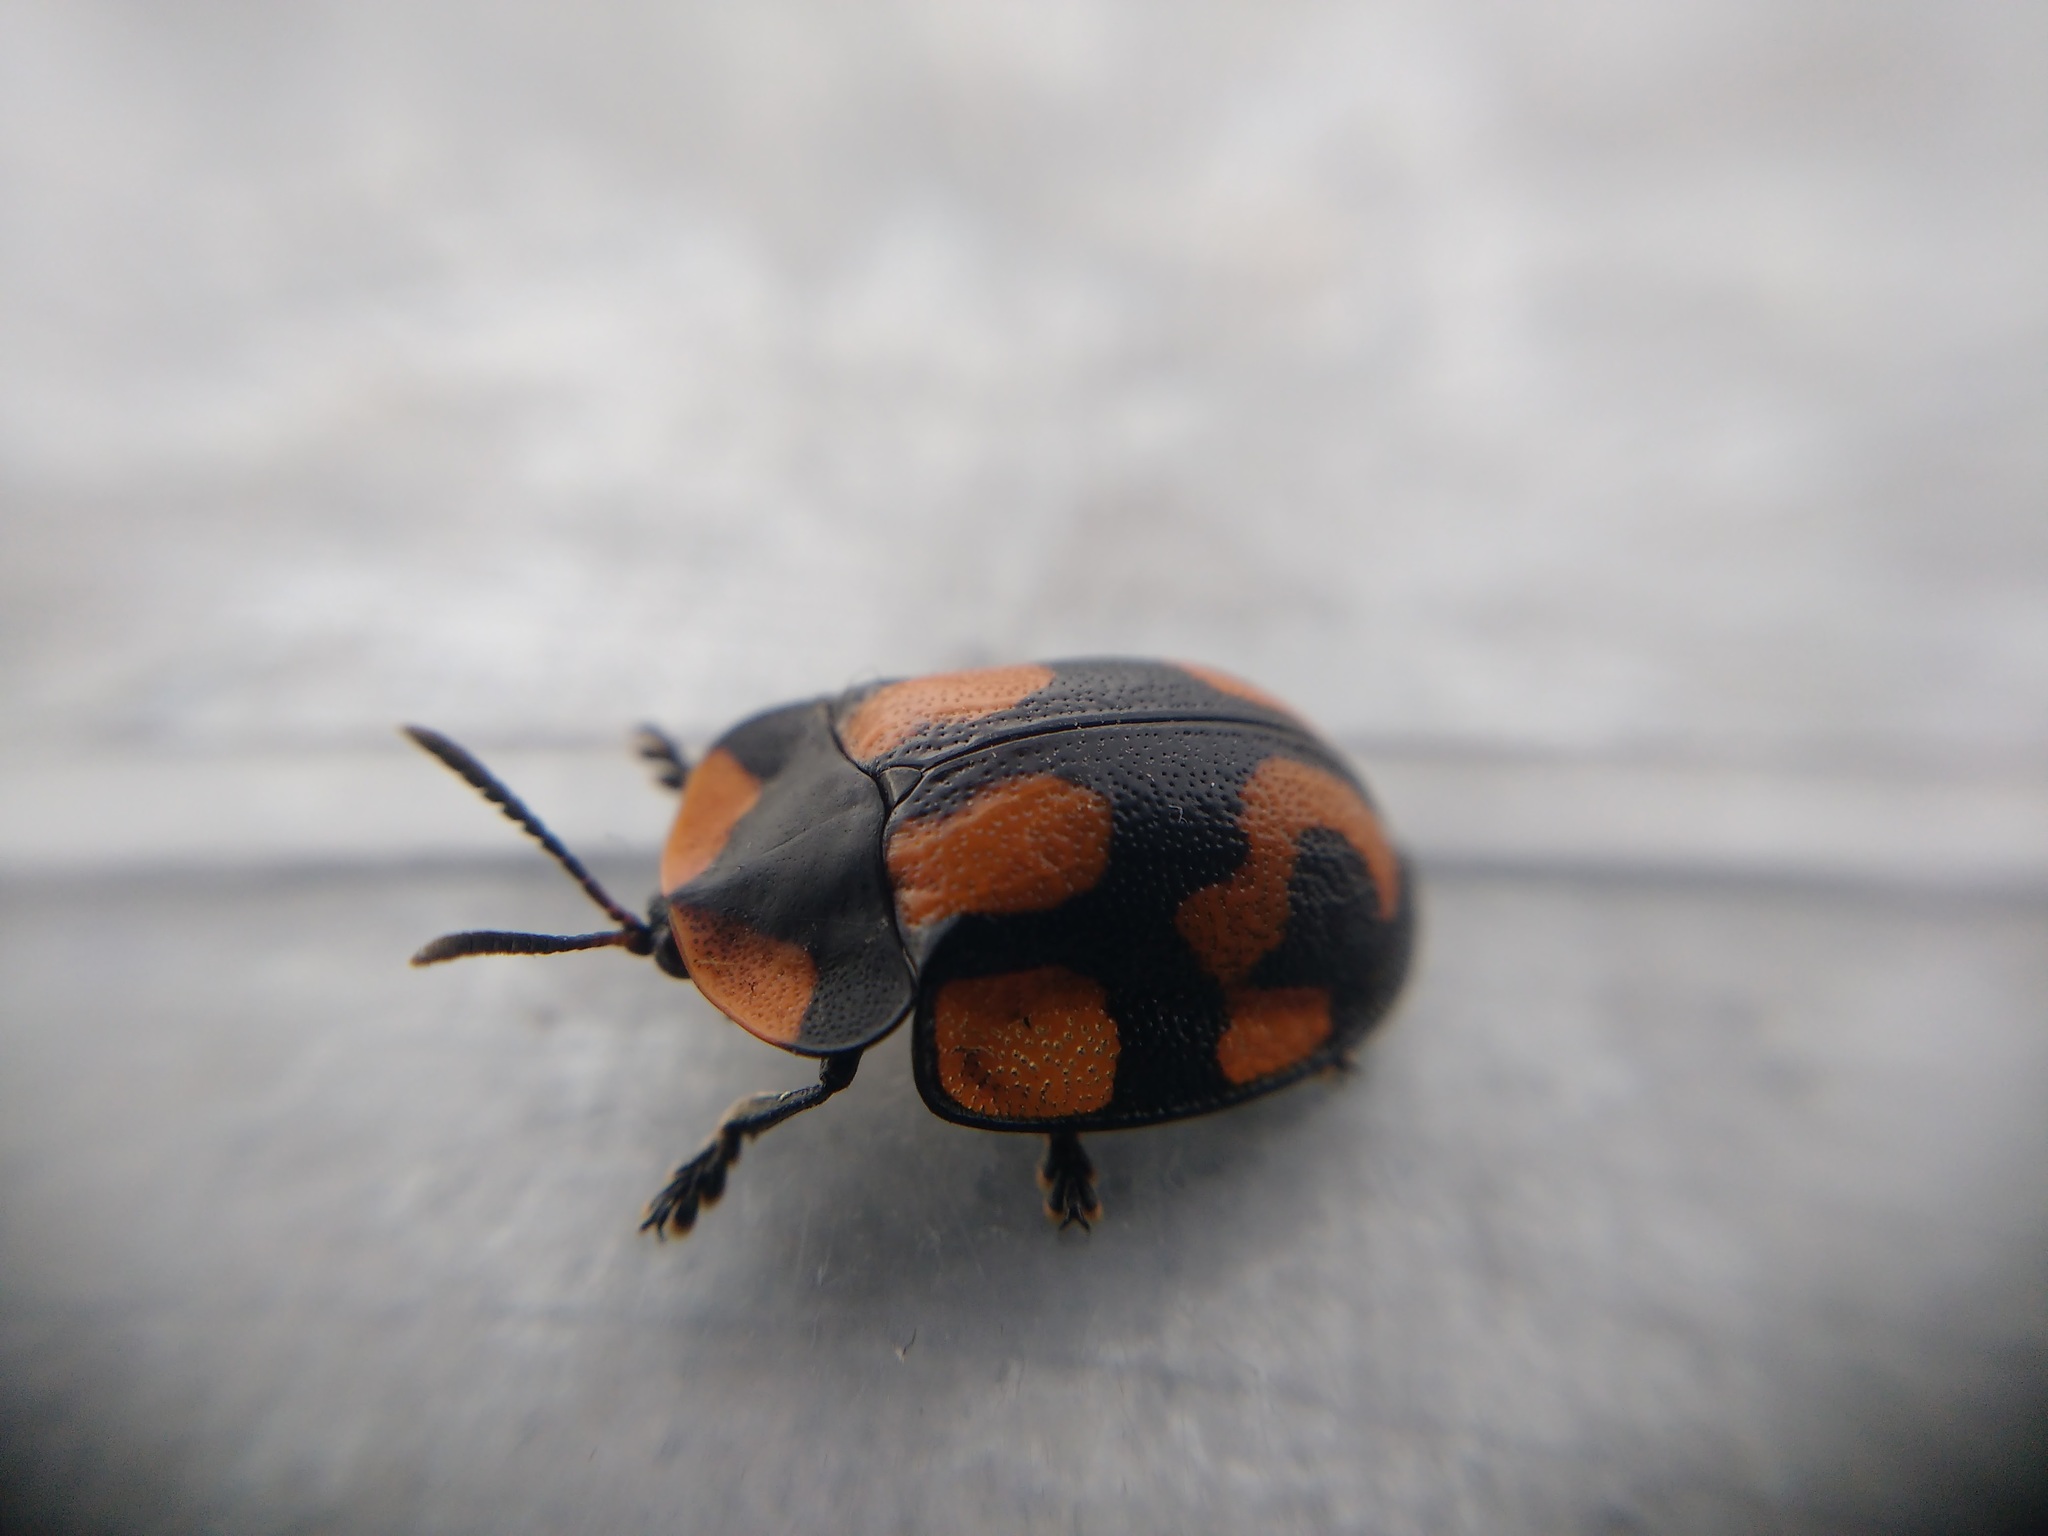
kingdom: Animalia
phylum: Arthropoda
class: Insecta
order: Coleoptera
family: Chrysomelidae
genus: Botanochara
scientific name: Botanochara angulata
